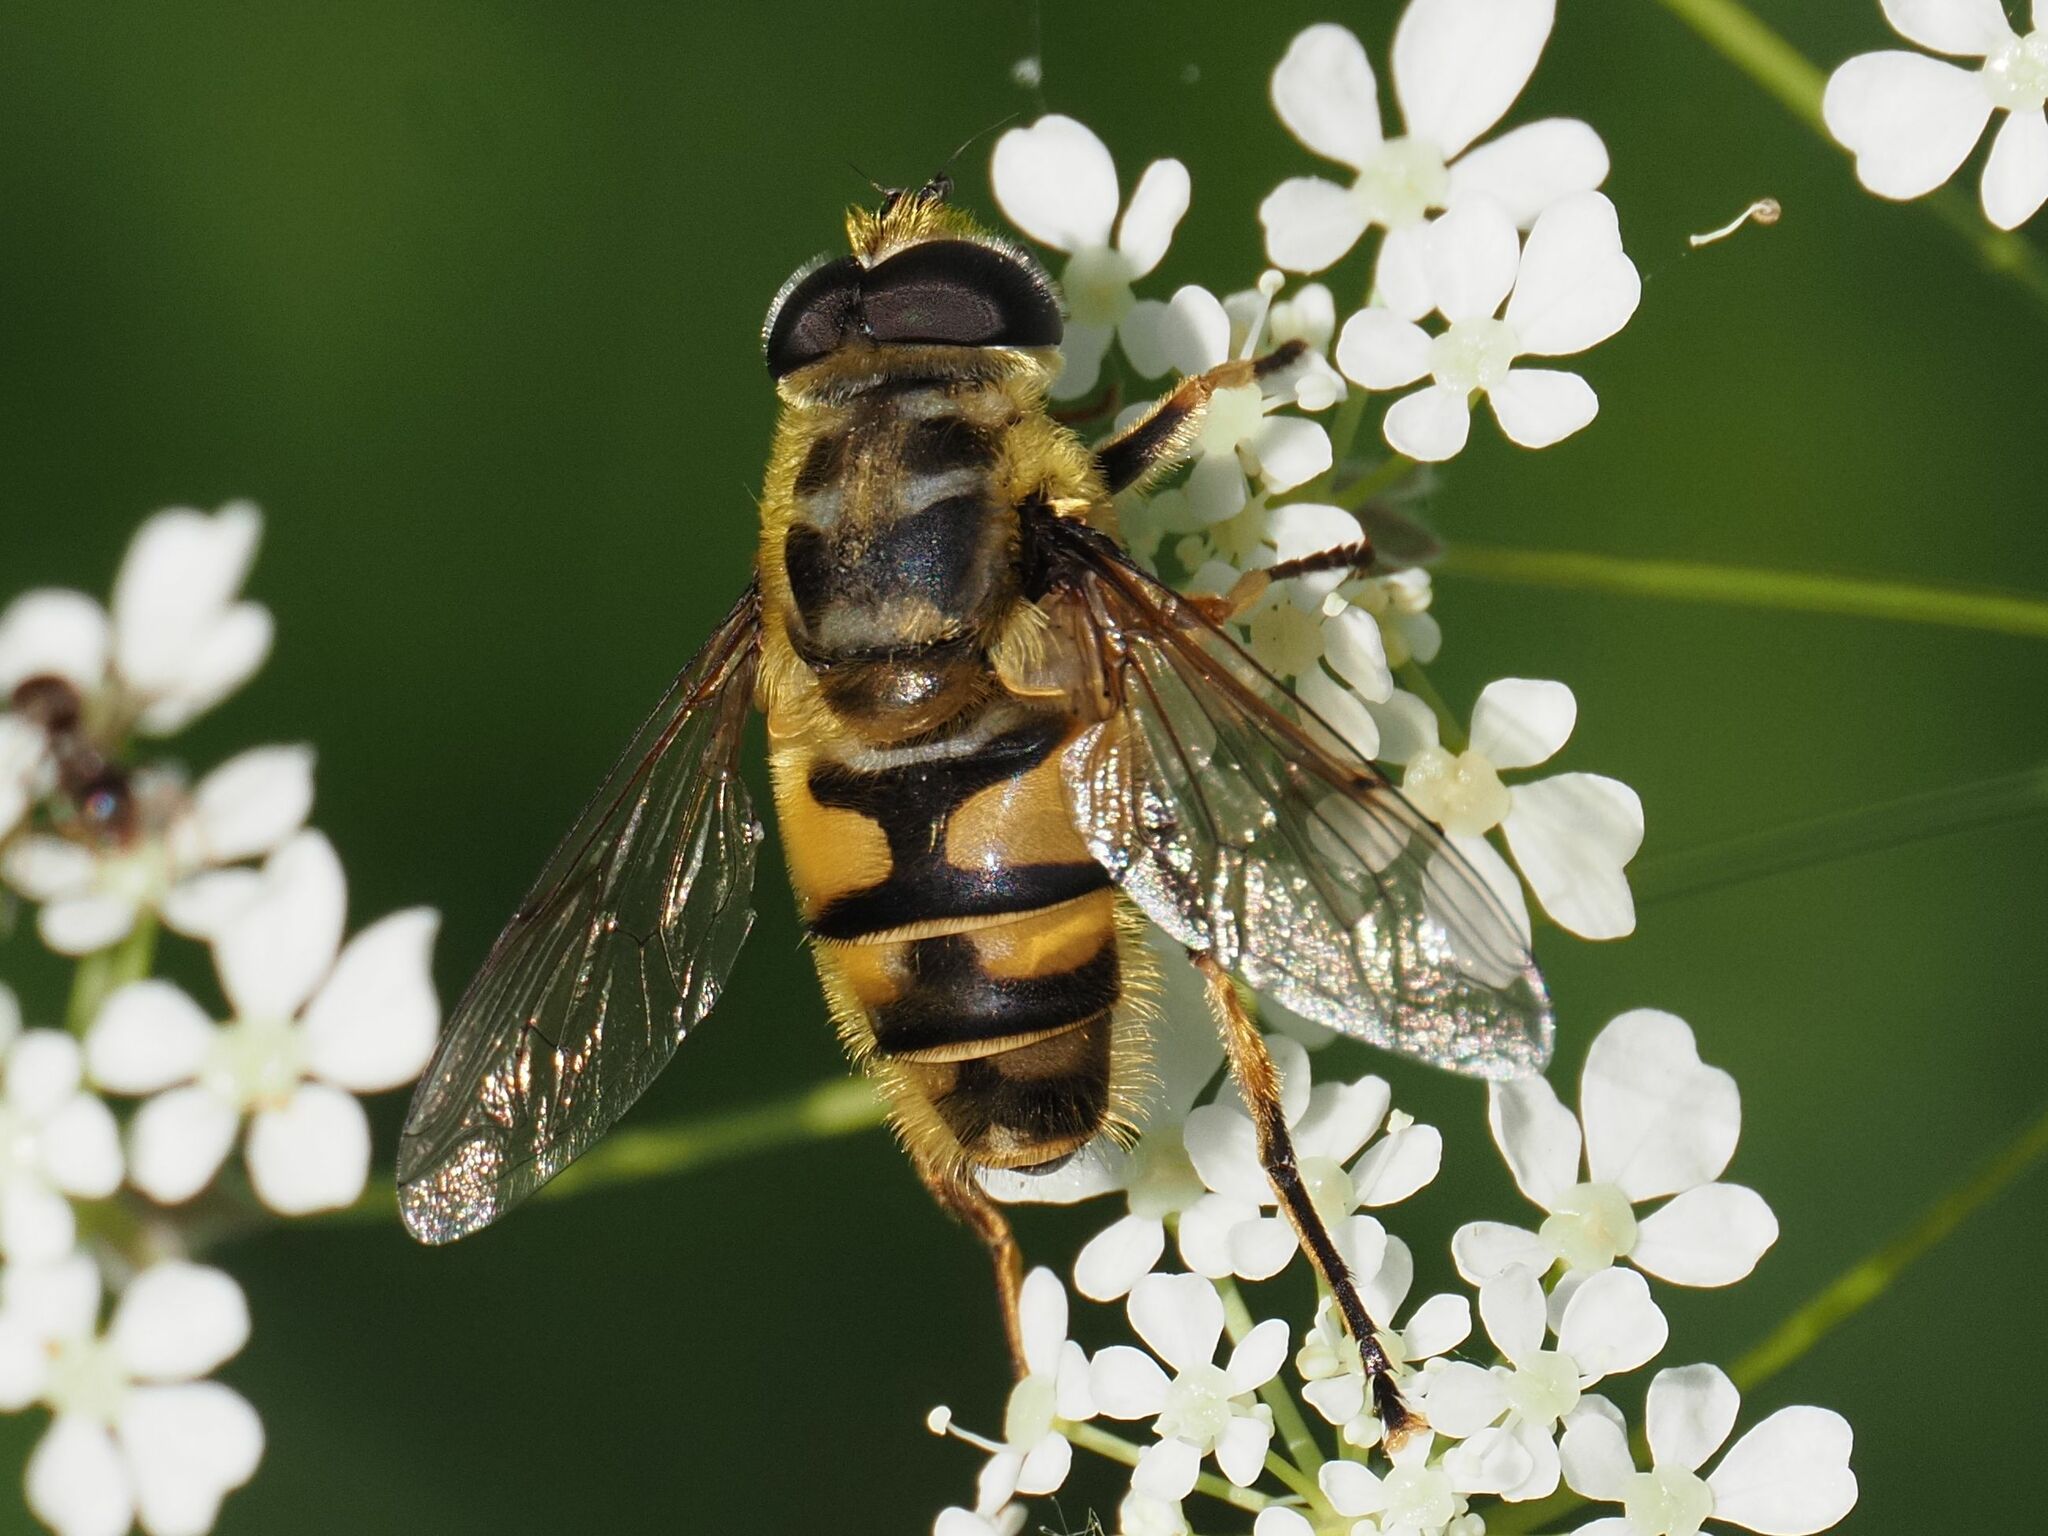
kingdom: Animalia
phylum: Arthropoda
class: Insecta
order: Diptera
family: Syrphidae
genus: Myathropa
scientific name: Myathropa florea
